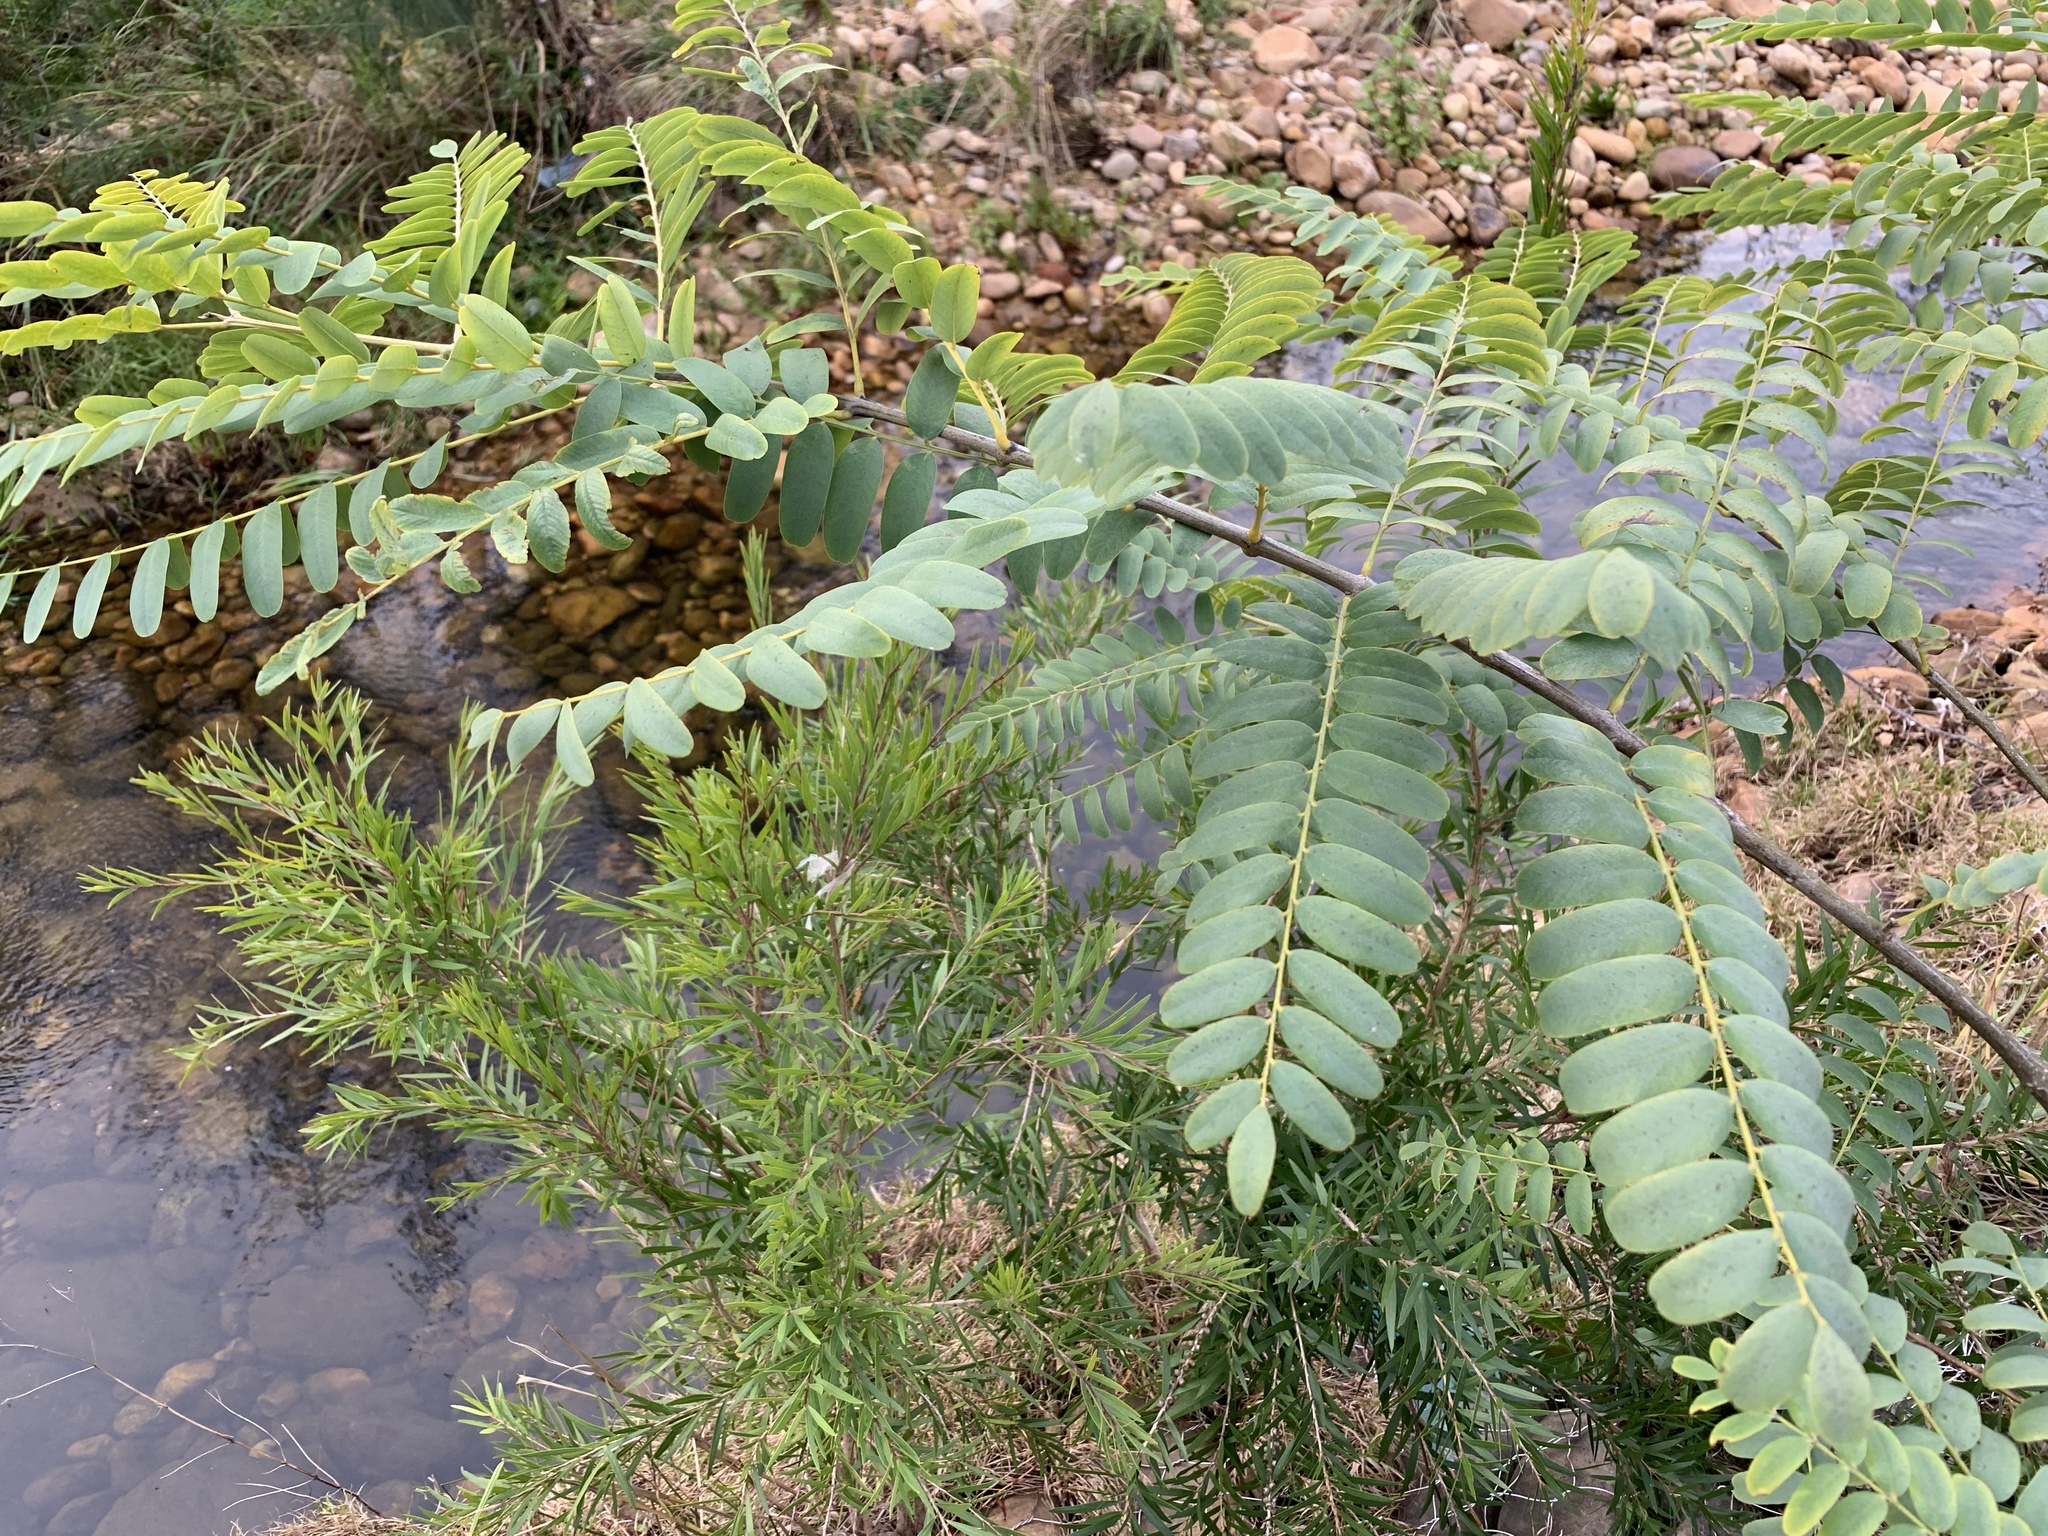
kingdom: Plantae
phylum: Tracheophyta
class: Magnoliopsida
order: Fabales
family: Fabaceae
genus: Tipuana
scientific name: Tipuana tipu
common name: Tiputree
